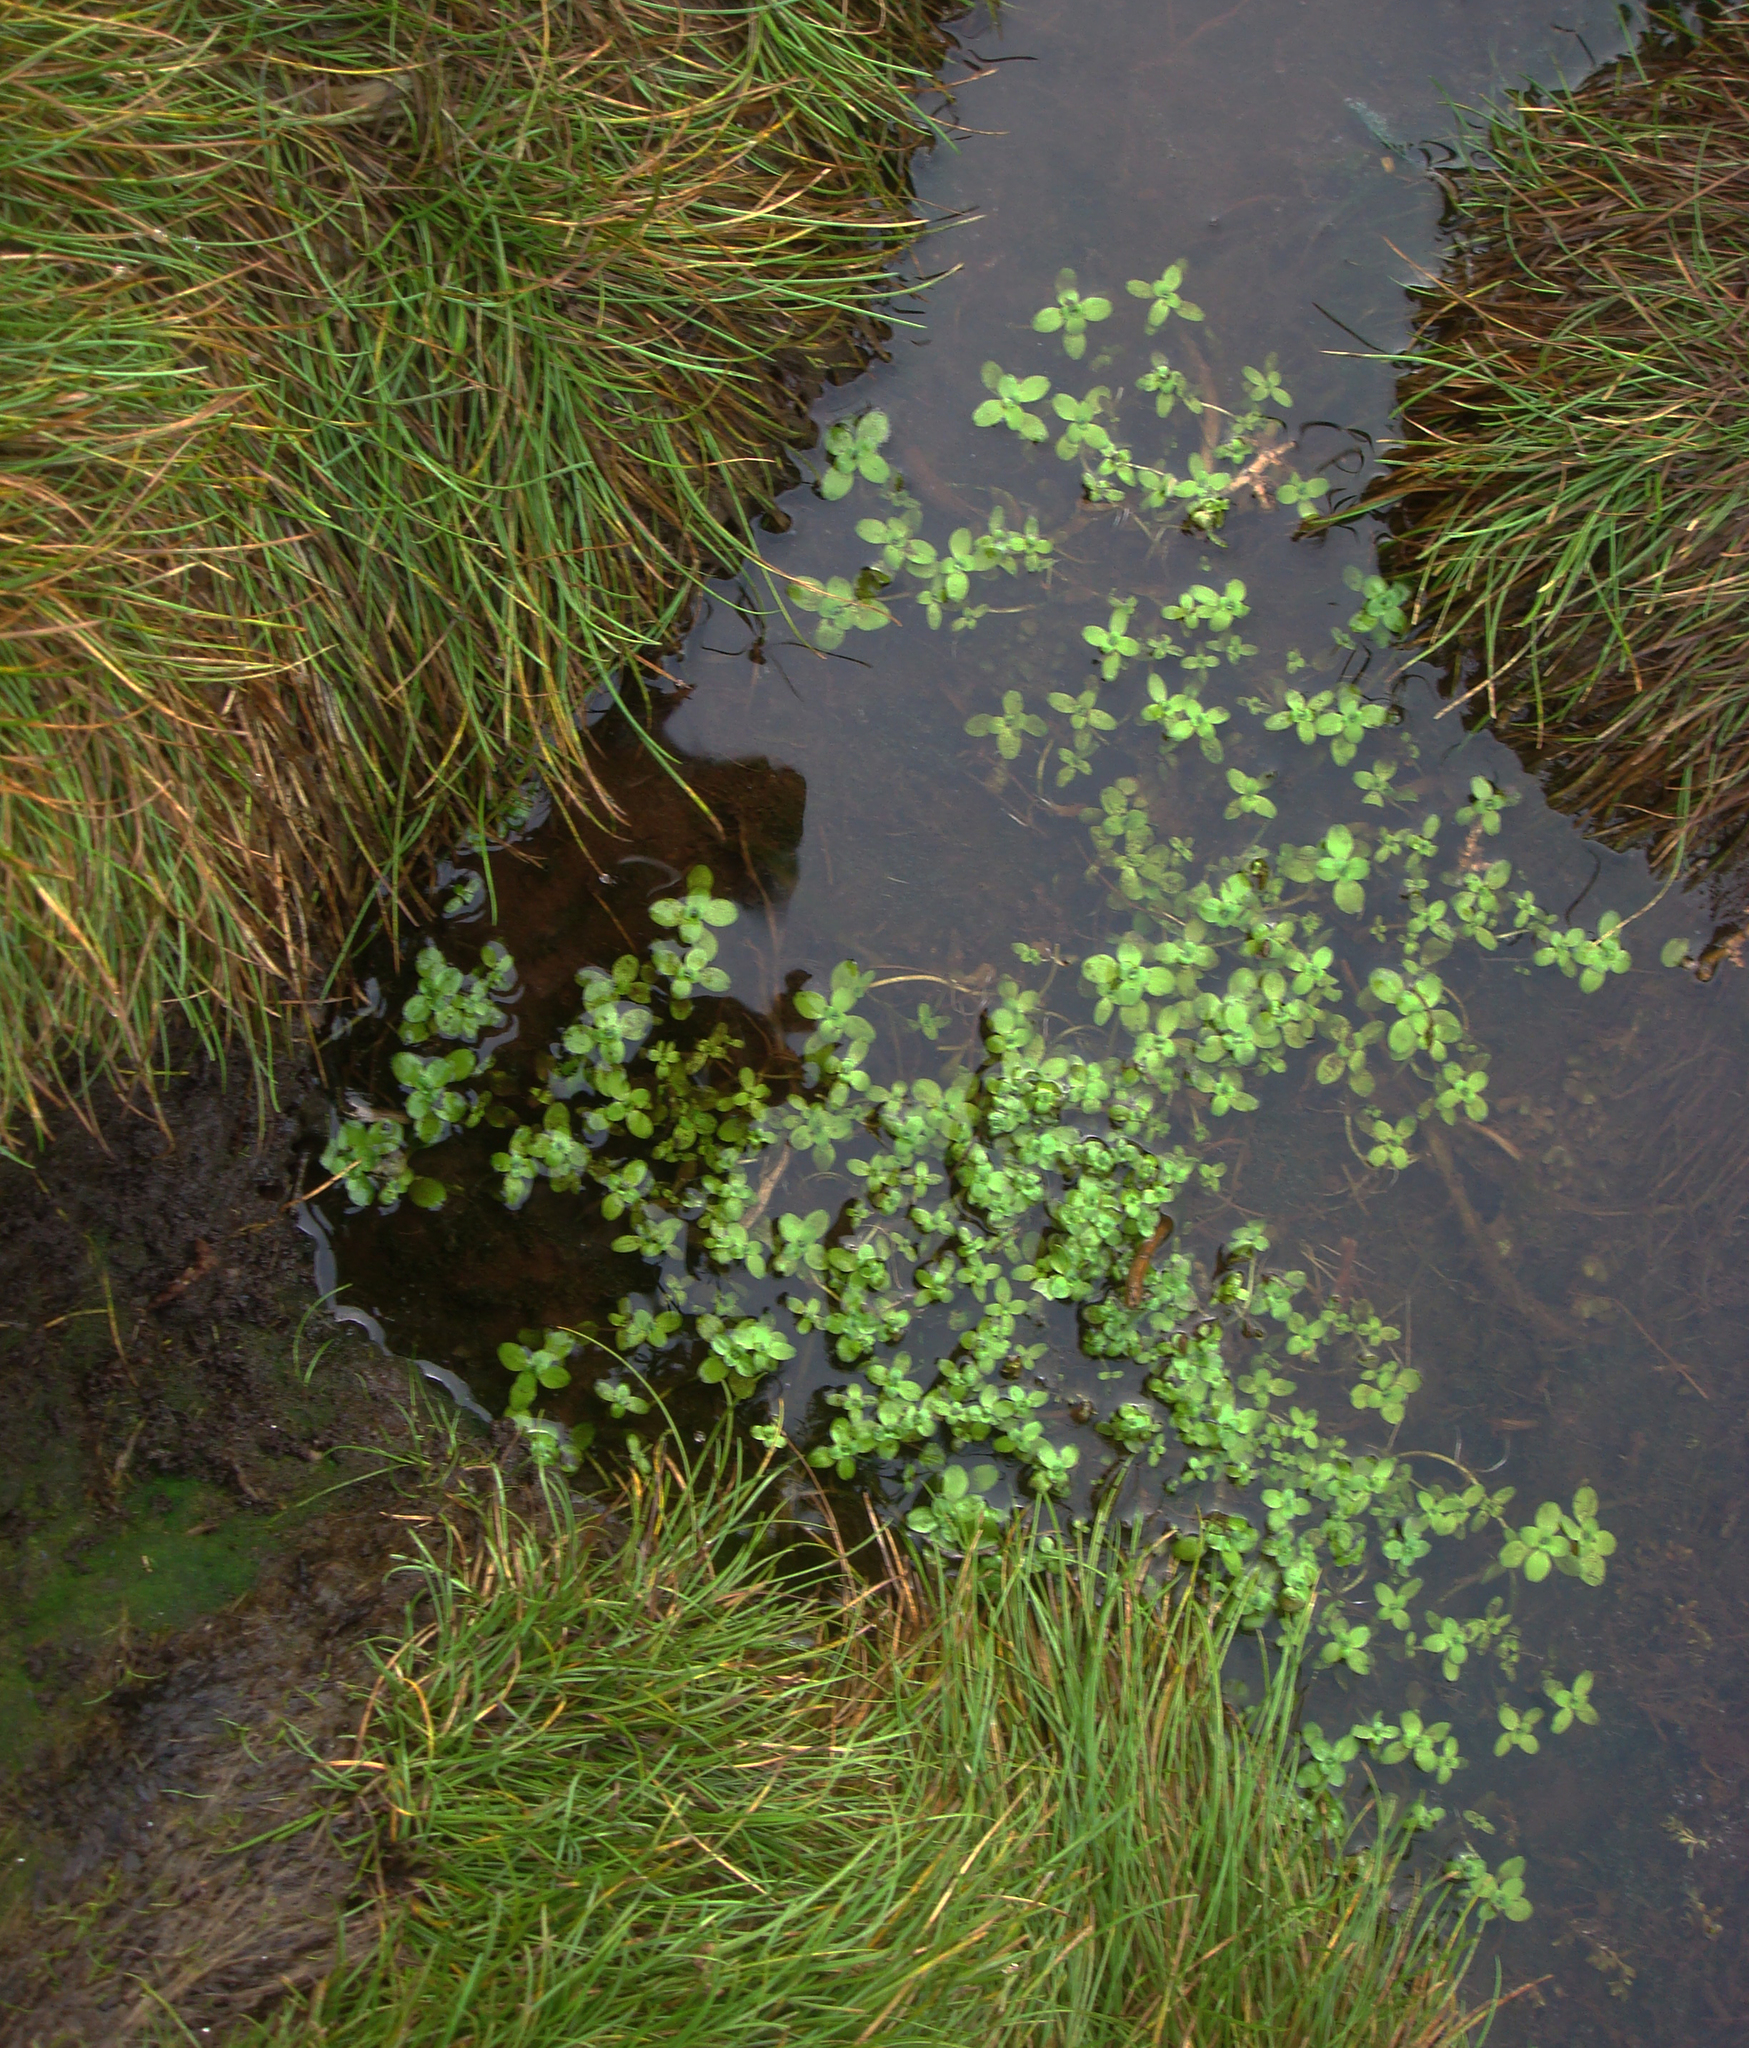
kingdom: Plantae
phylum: Tracheophyta
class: Magnoliopsida
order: Lamiales
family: Plantaginaceae
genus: Callitriche
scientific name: Callitriche stagnalis
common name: Common water-starwort
